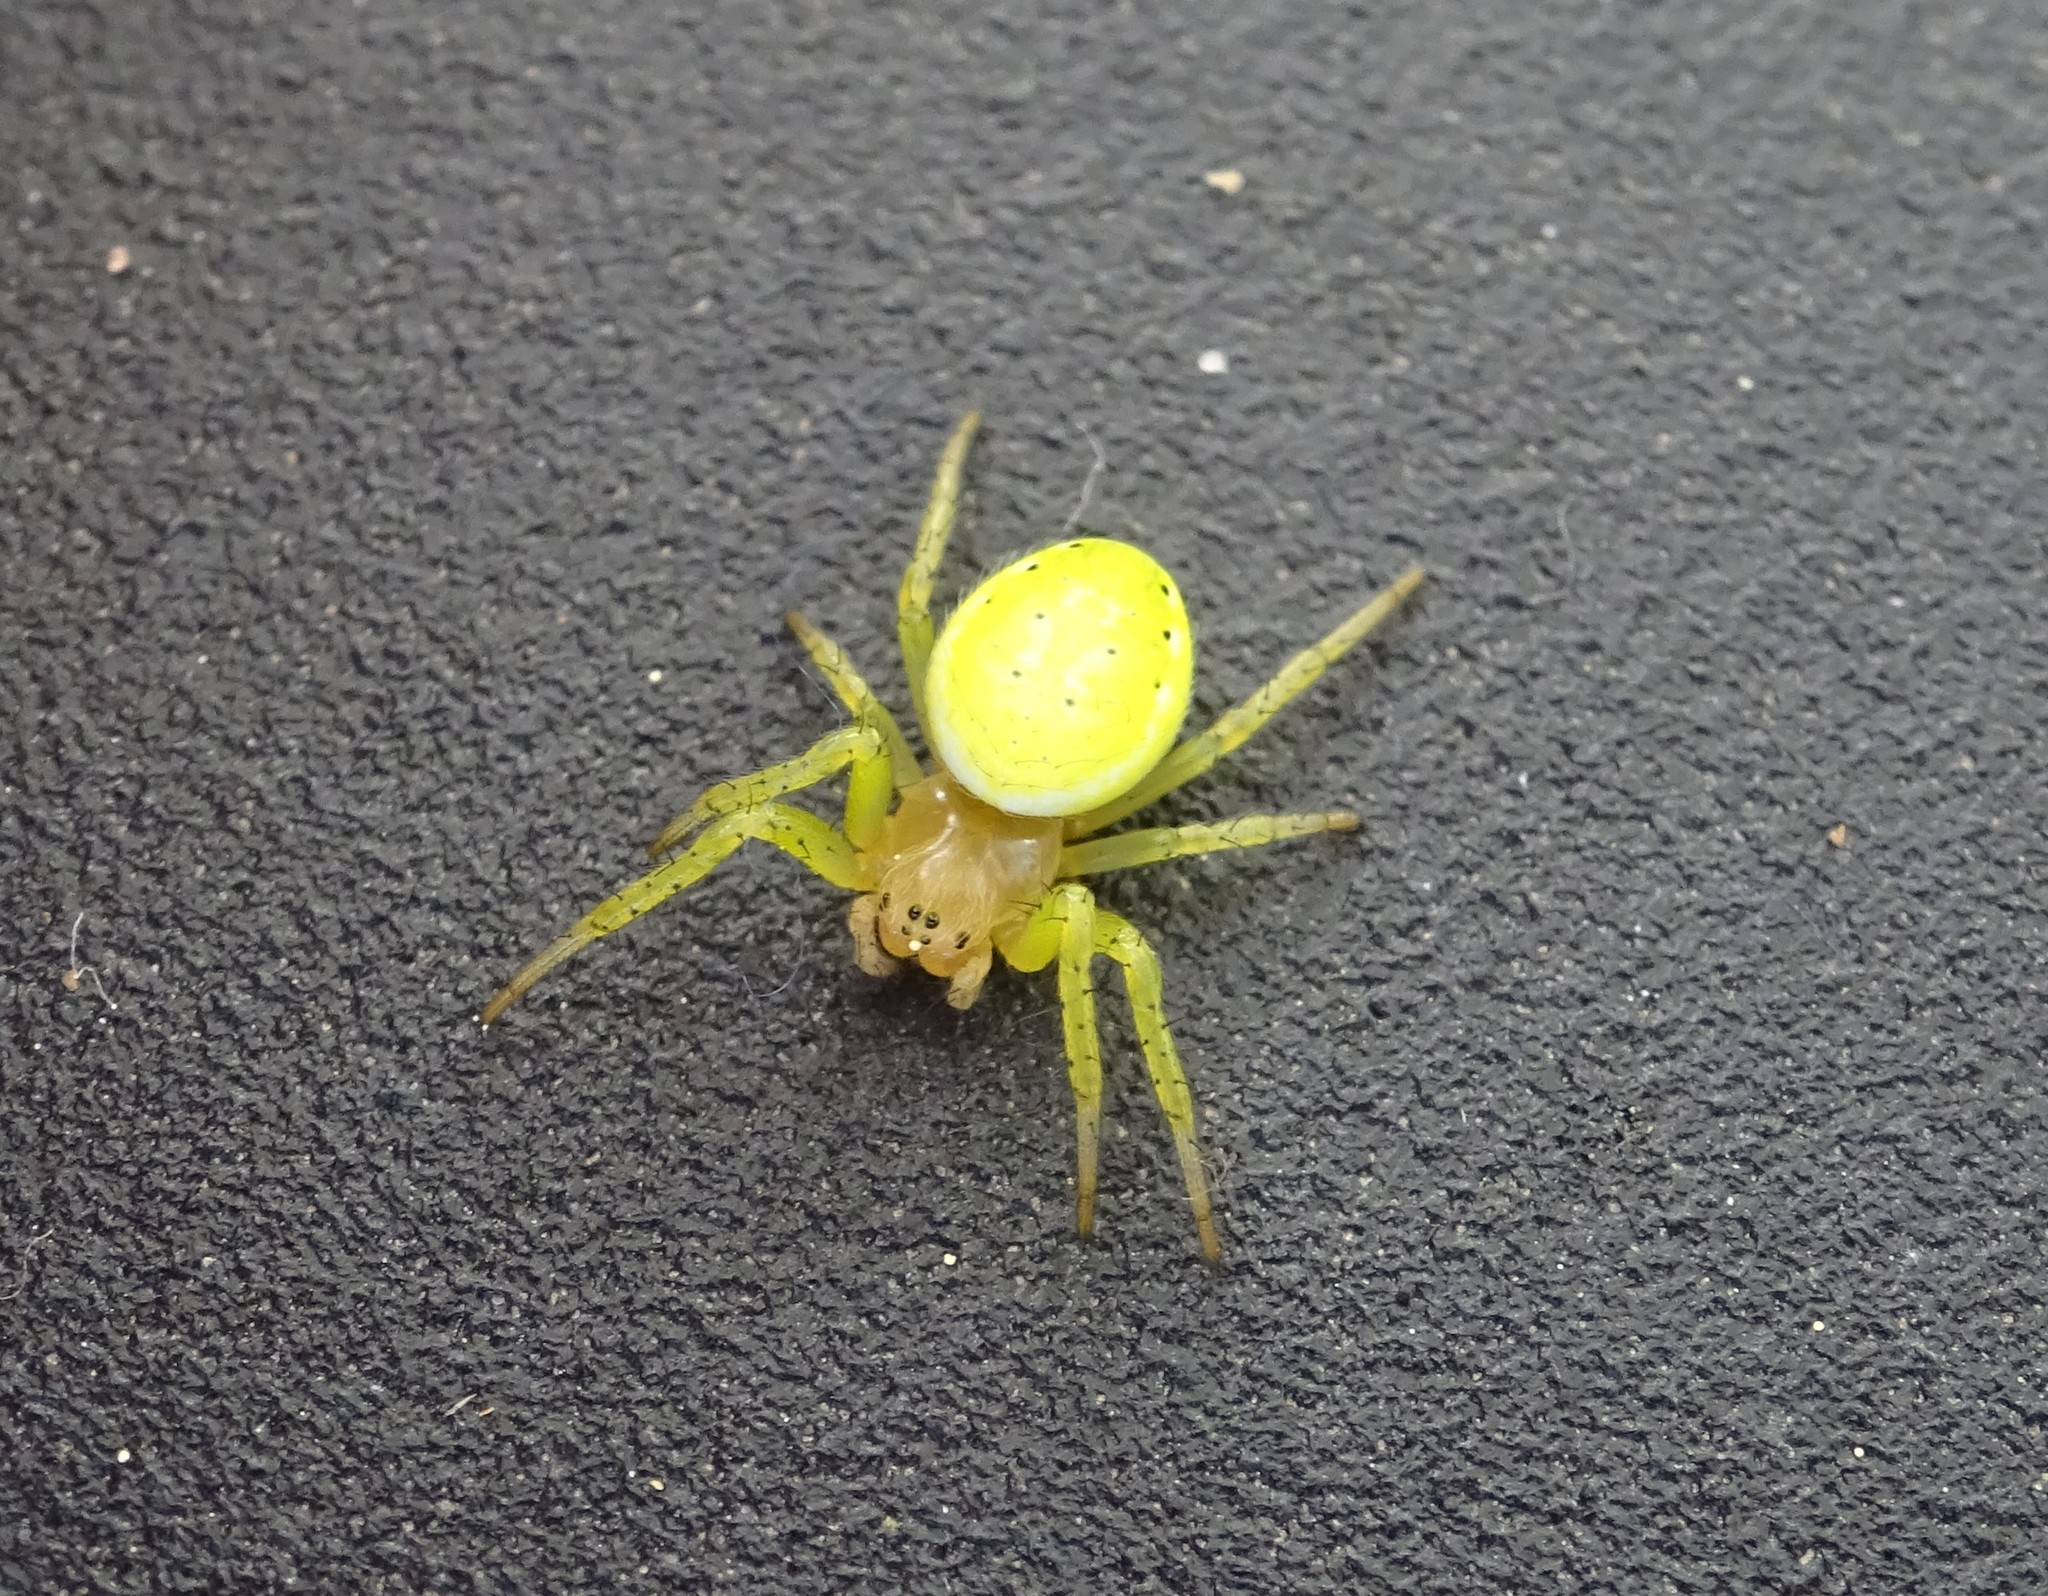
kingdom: Animalia
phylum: Arthropoda
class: Arachnida
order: Araneae
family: Araneidae
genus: Araniella
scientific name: Araniella
